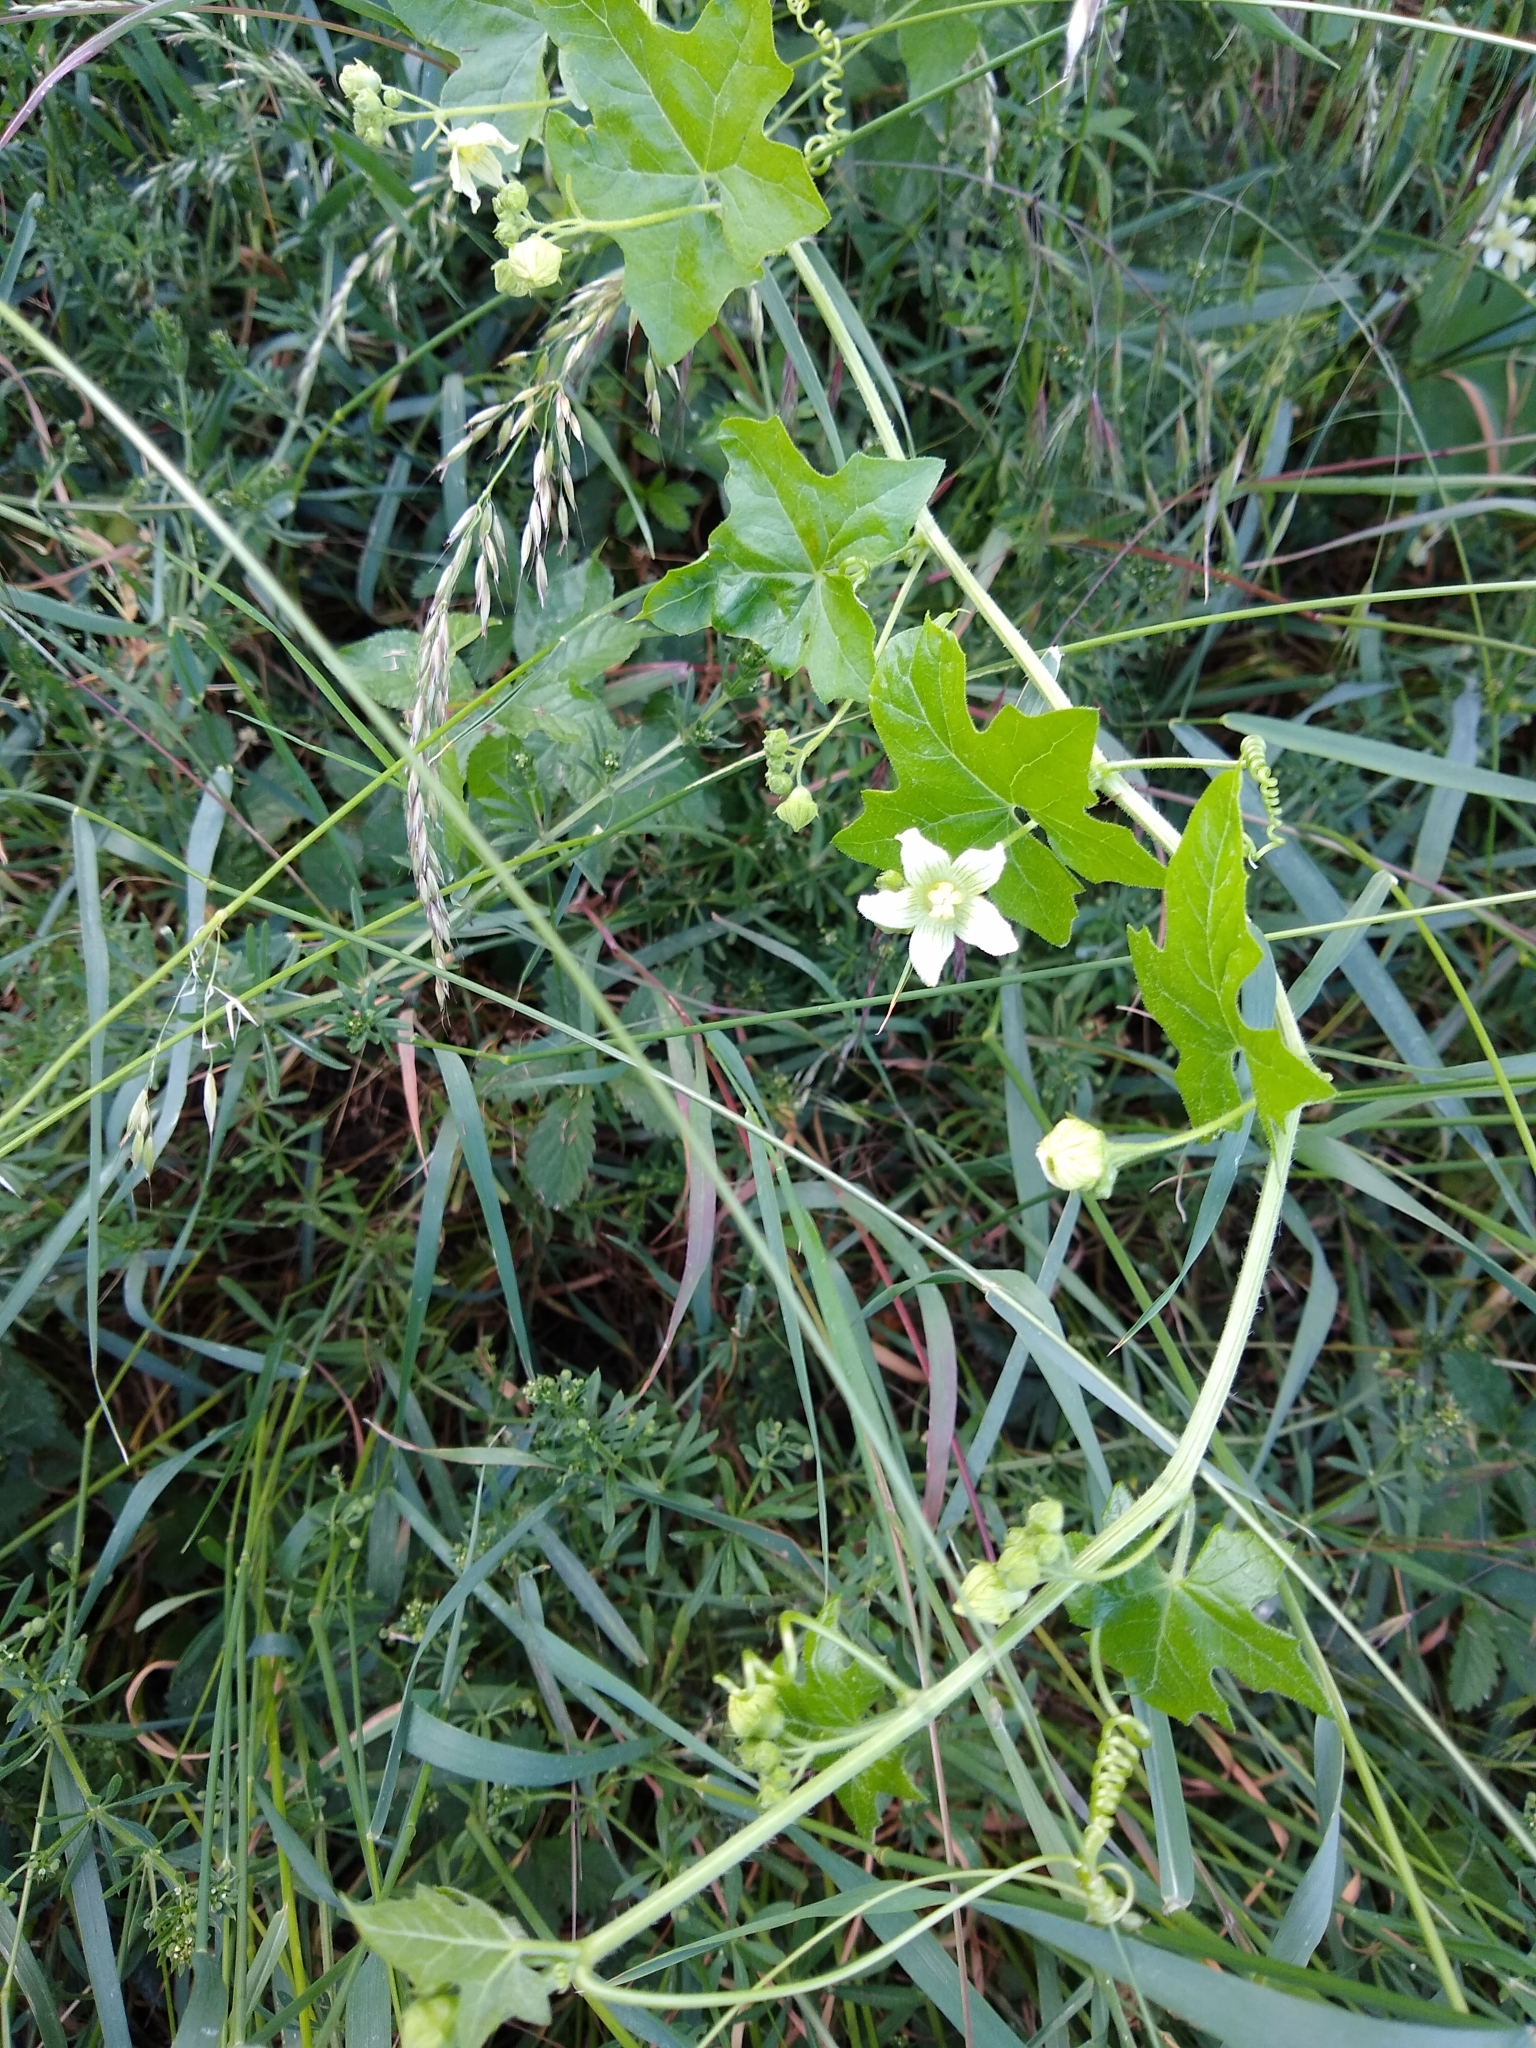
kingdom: Plantae
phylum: Tracheophyta
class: Magnoliopsida
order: Cucurbitales
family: Cucurbitaceae
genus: Bryonia
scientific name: Bryonia dioica
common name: White bryony
